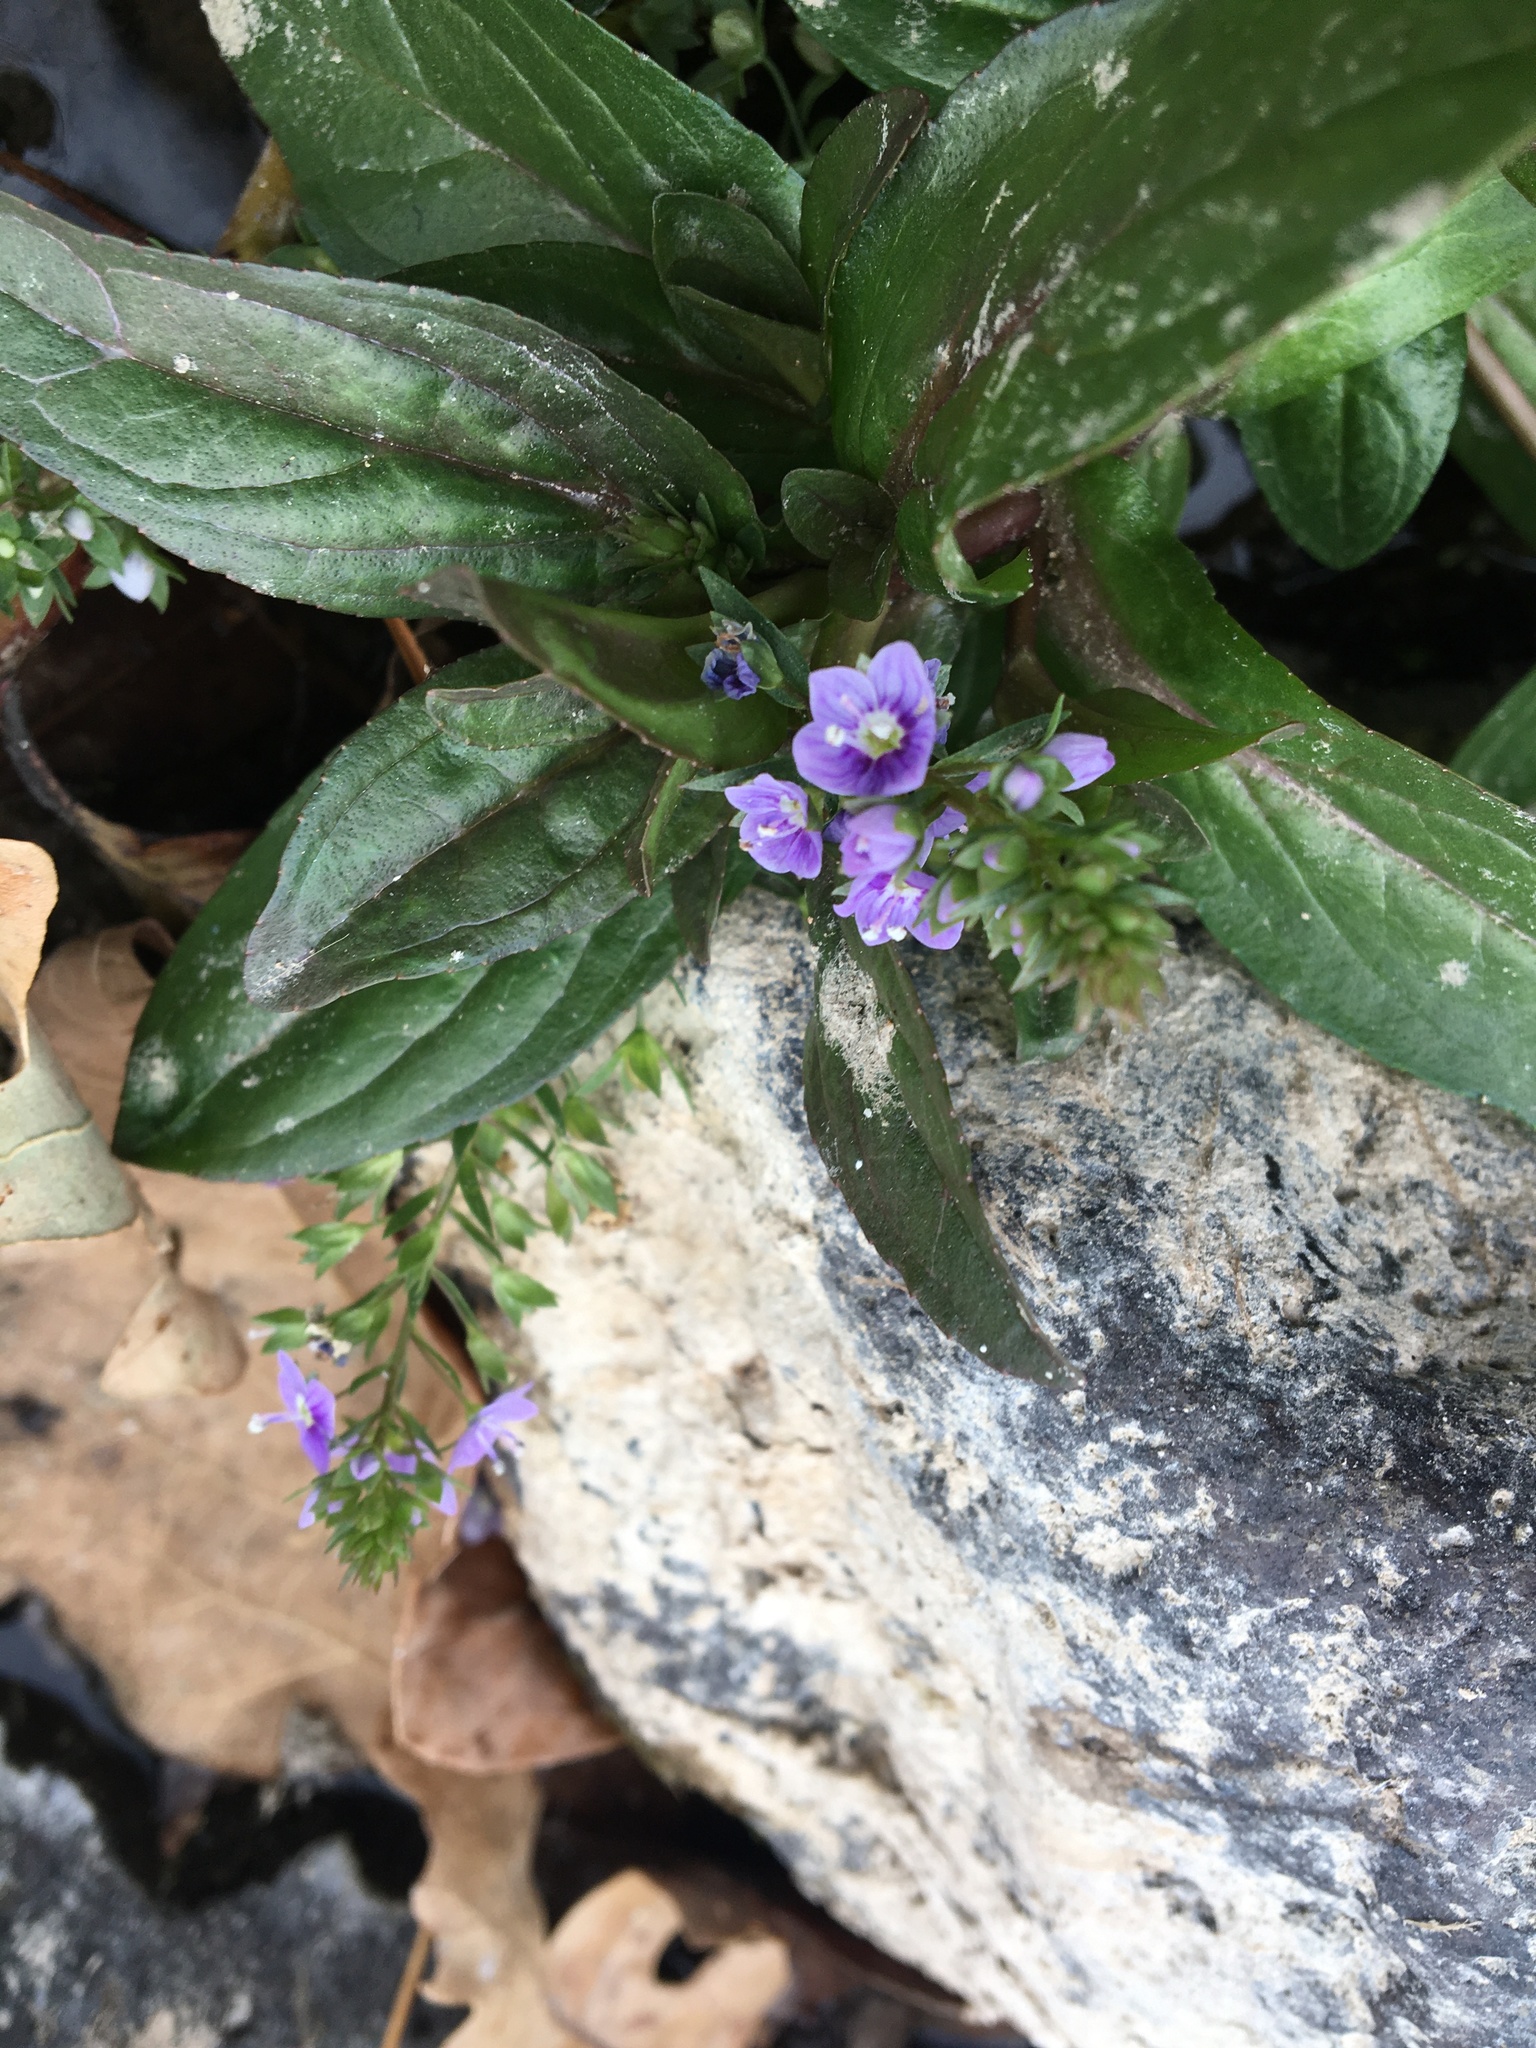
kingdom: Plantae
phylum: Tracheophyta
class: Magnoliopsida
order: Lamiales
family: Plantaginaceae
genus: Veronica
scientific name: Veronica anagallis-aquatica
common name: Water speedwell
